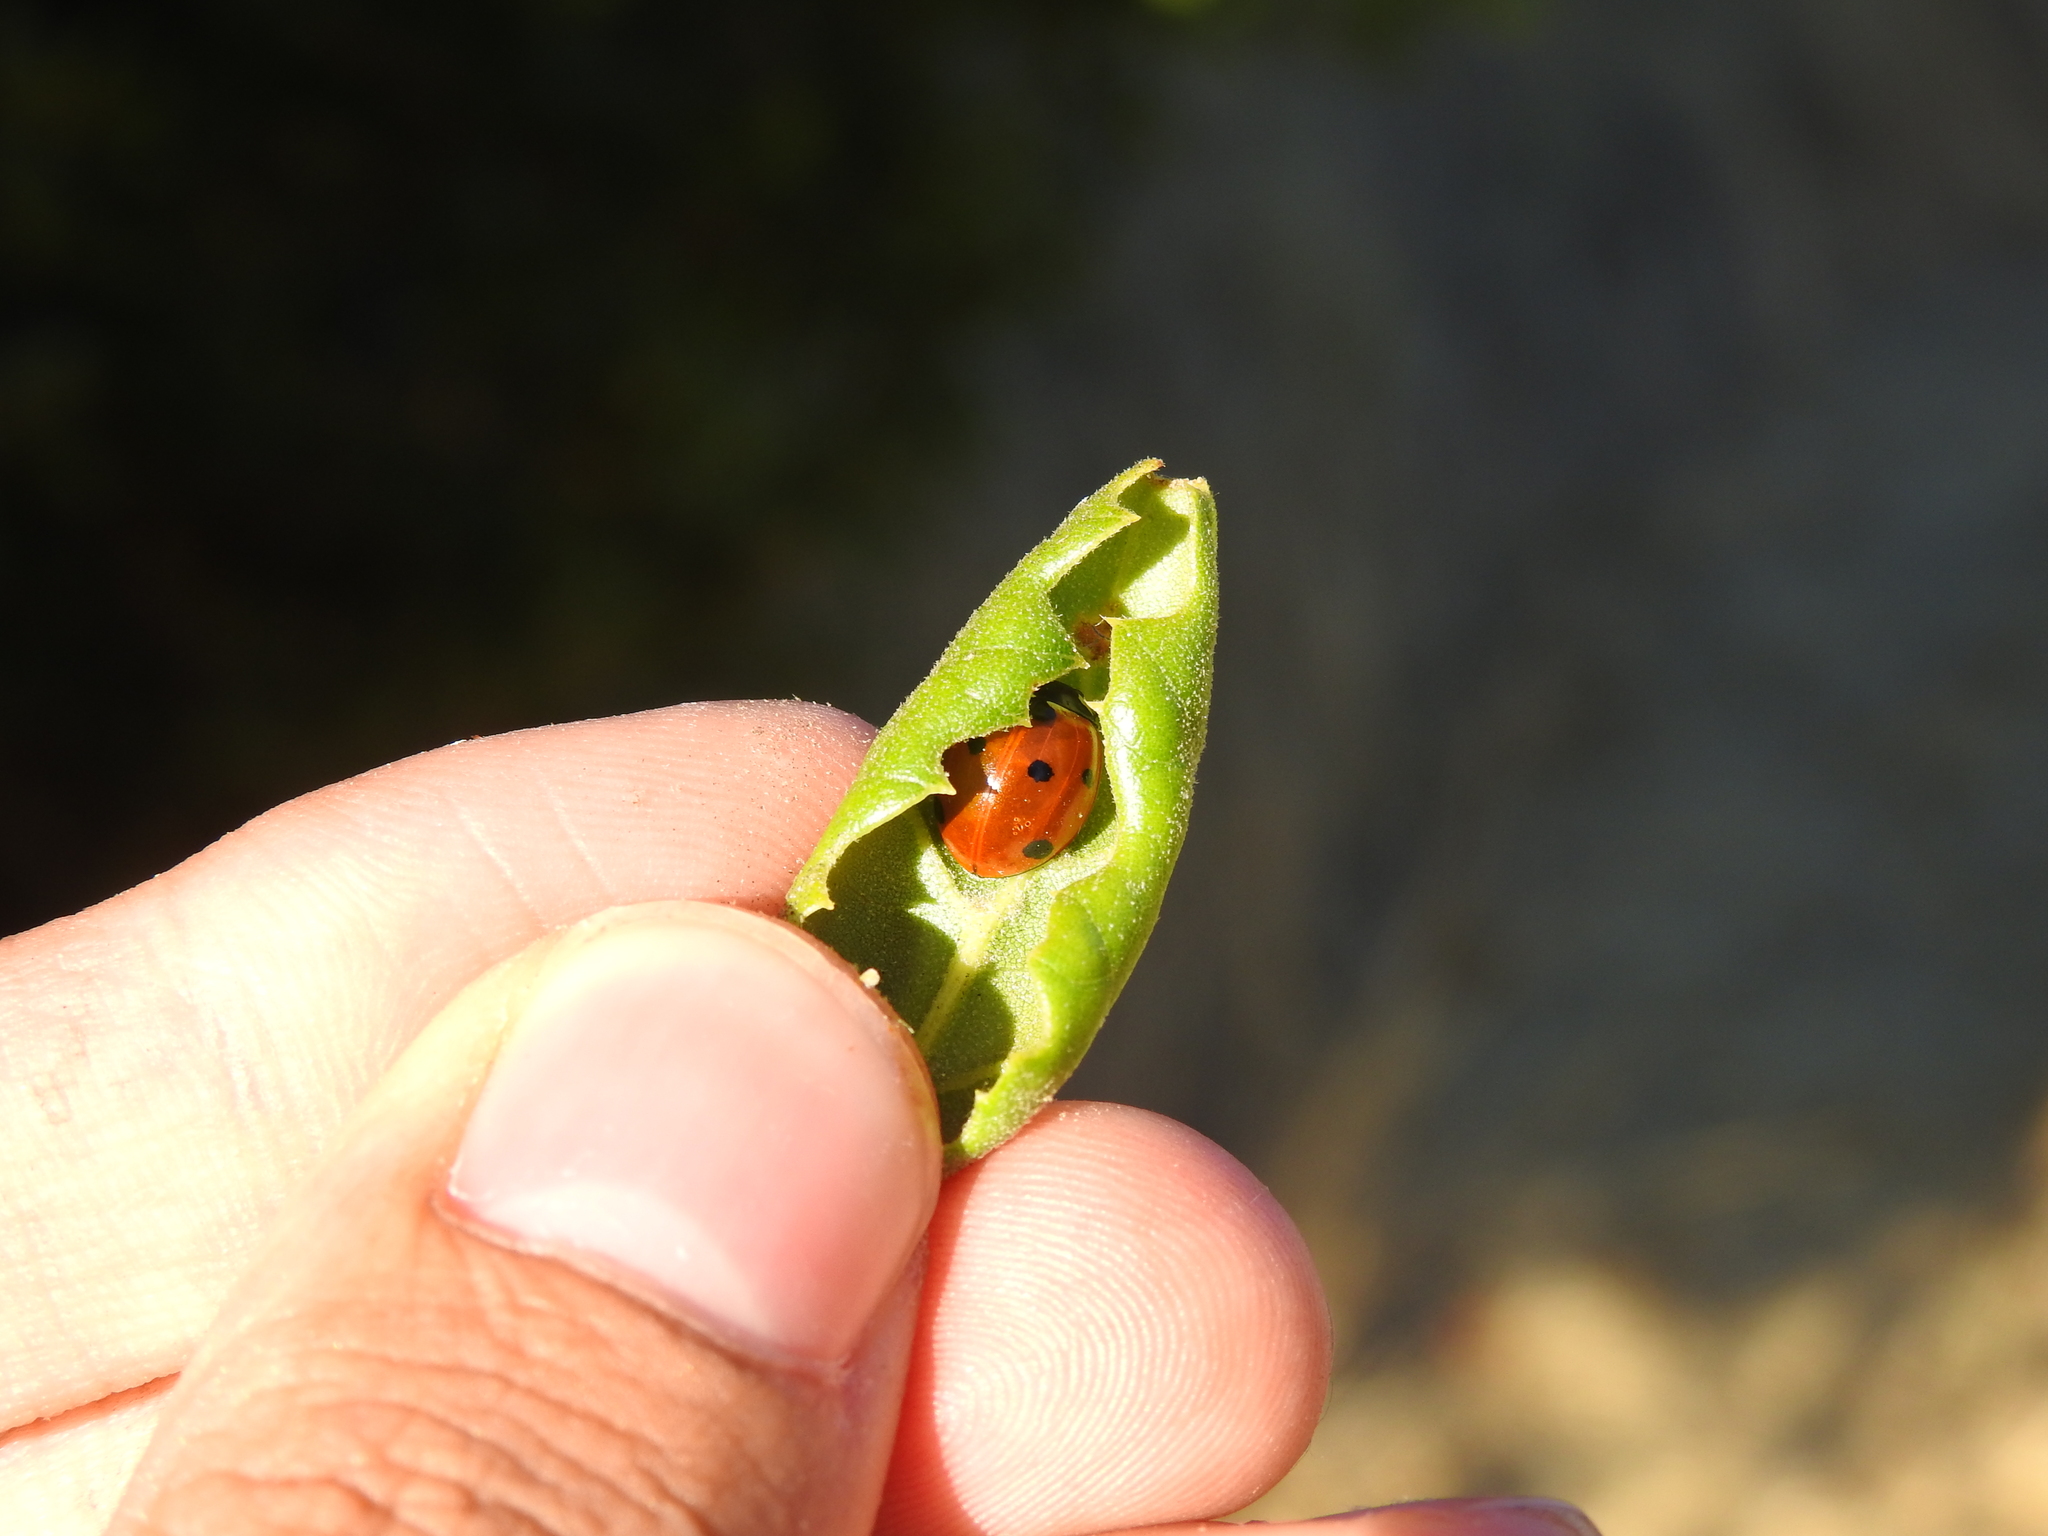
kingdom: Animalia
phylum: Arthropoda
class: Insecta
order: Coleoptera
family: Coccinellidae
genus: Coccinella
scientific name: Coccinella septempunctata
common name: Sevenspotted lady beetle
